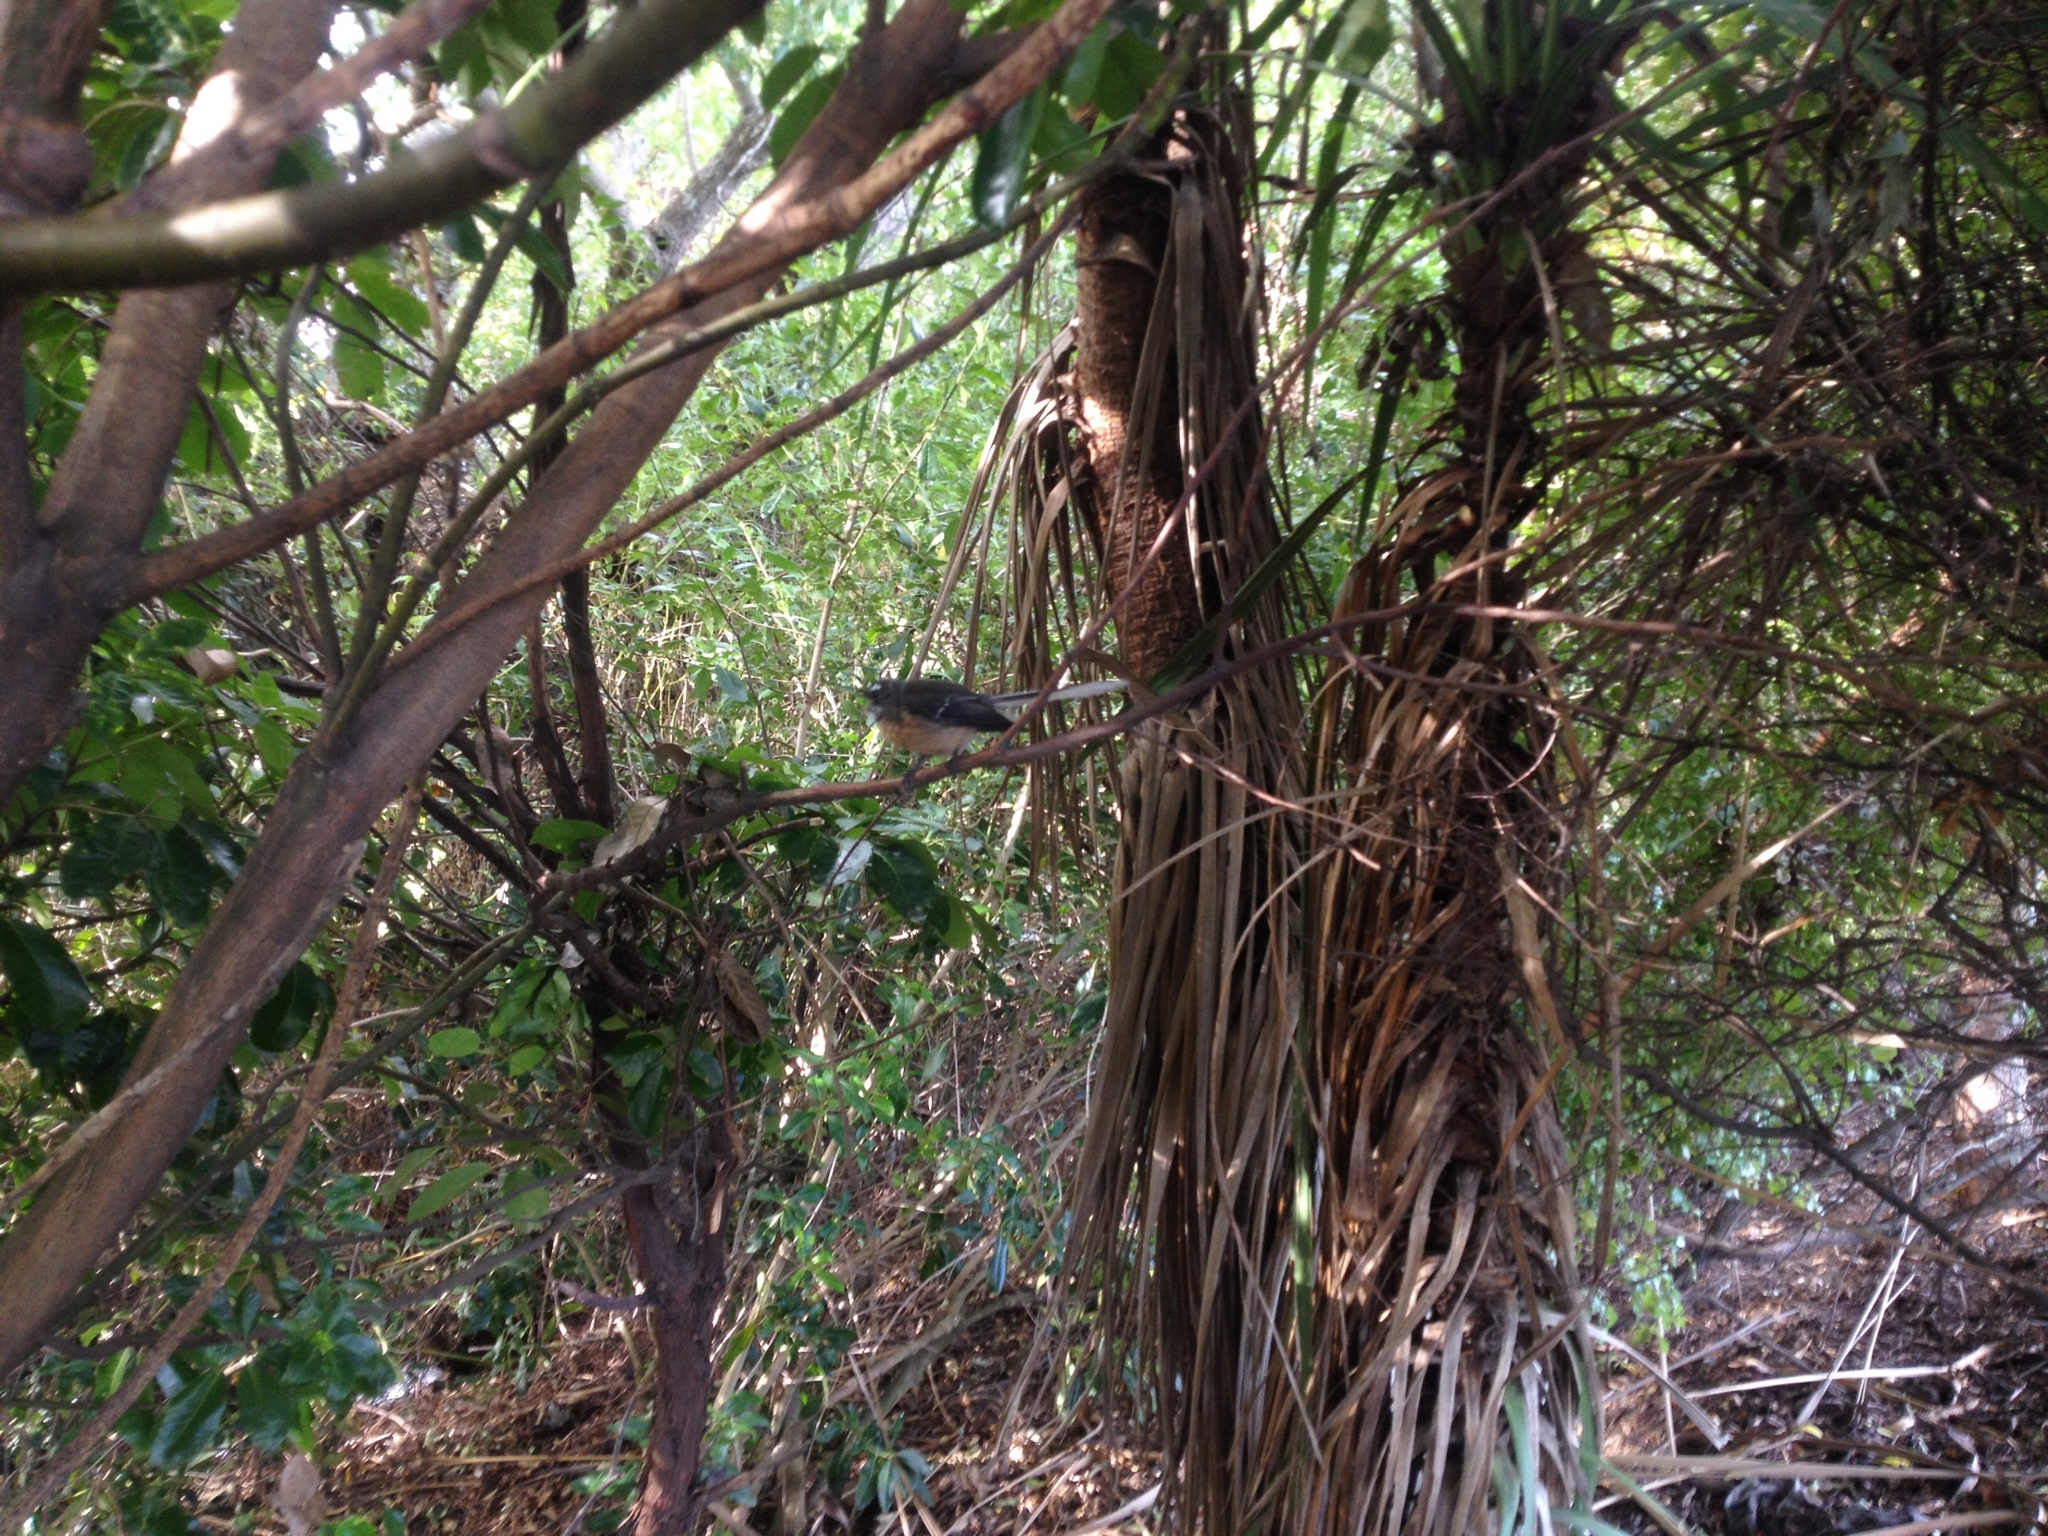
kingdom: Animalia
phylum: Chordata
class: Aves
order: Passeriformes
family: Rhipiduridae
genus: Rhipidura
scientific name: Rhipidura fuliginosa
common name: New zealand fantail
